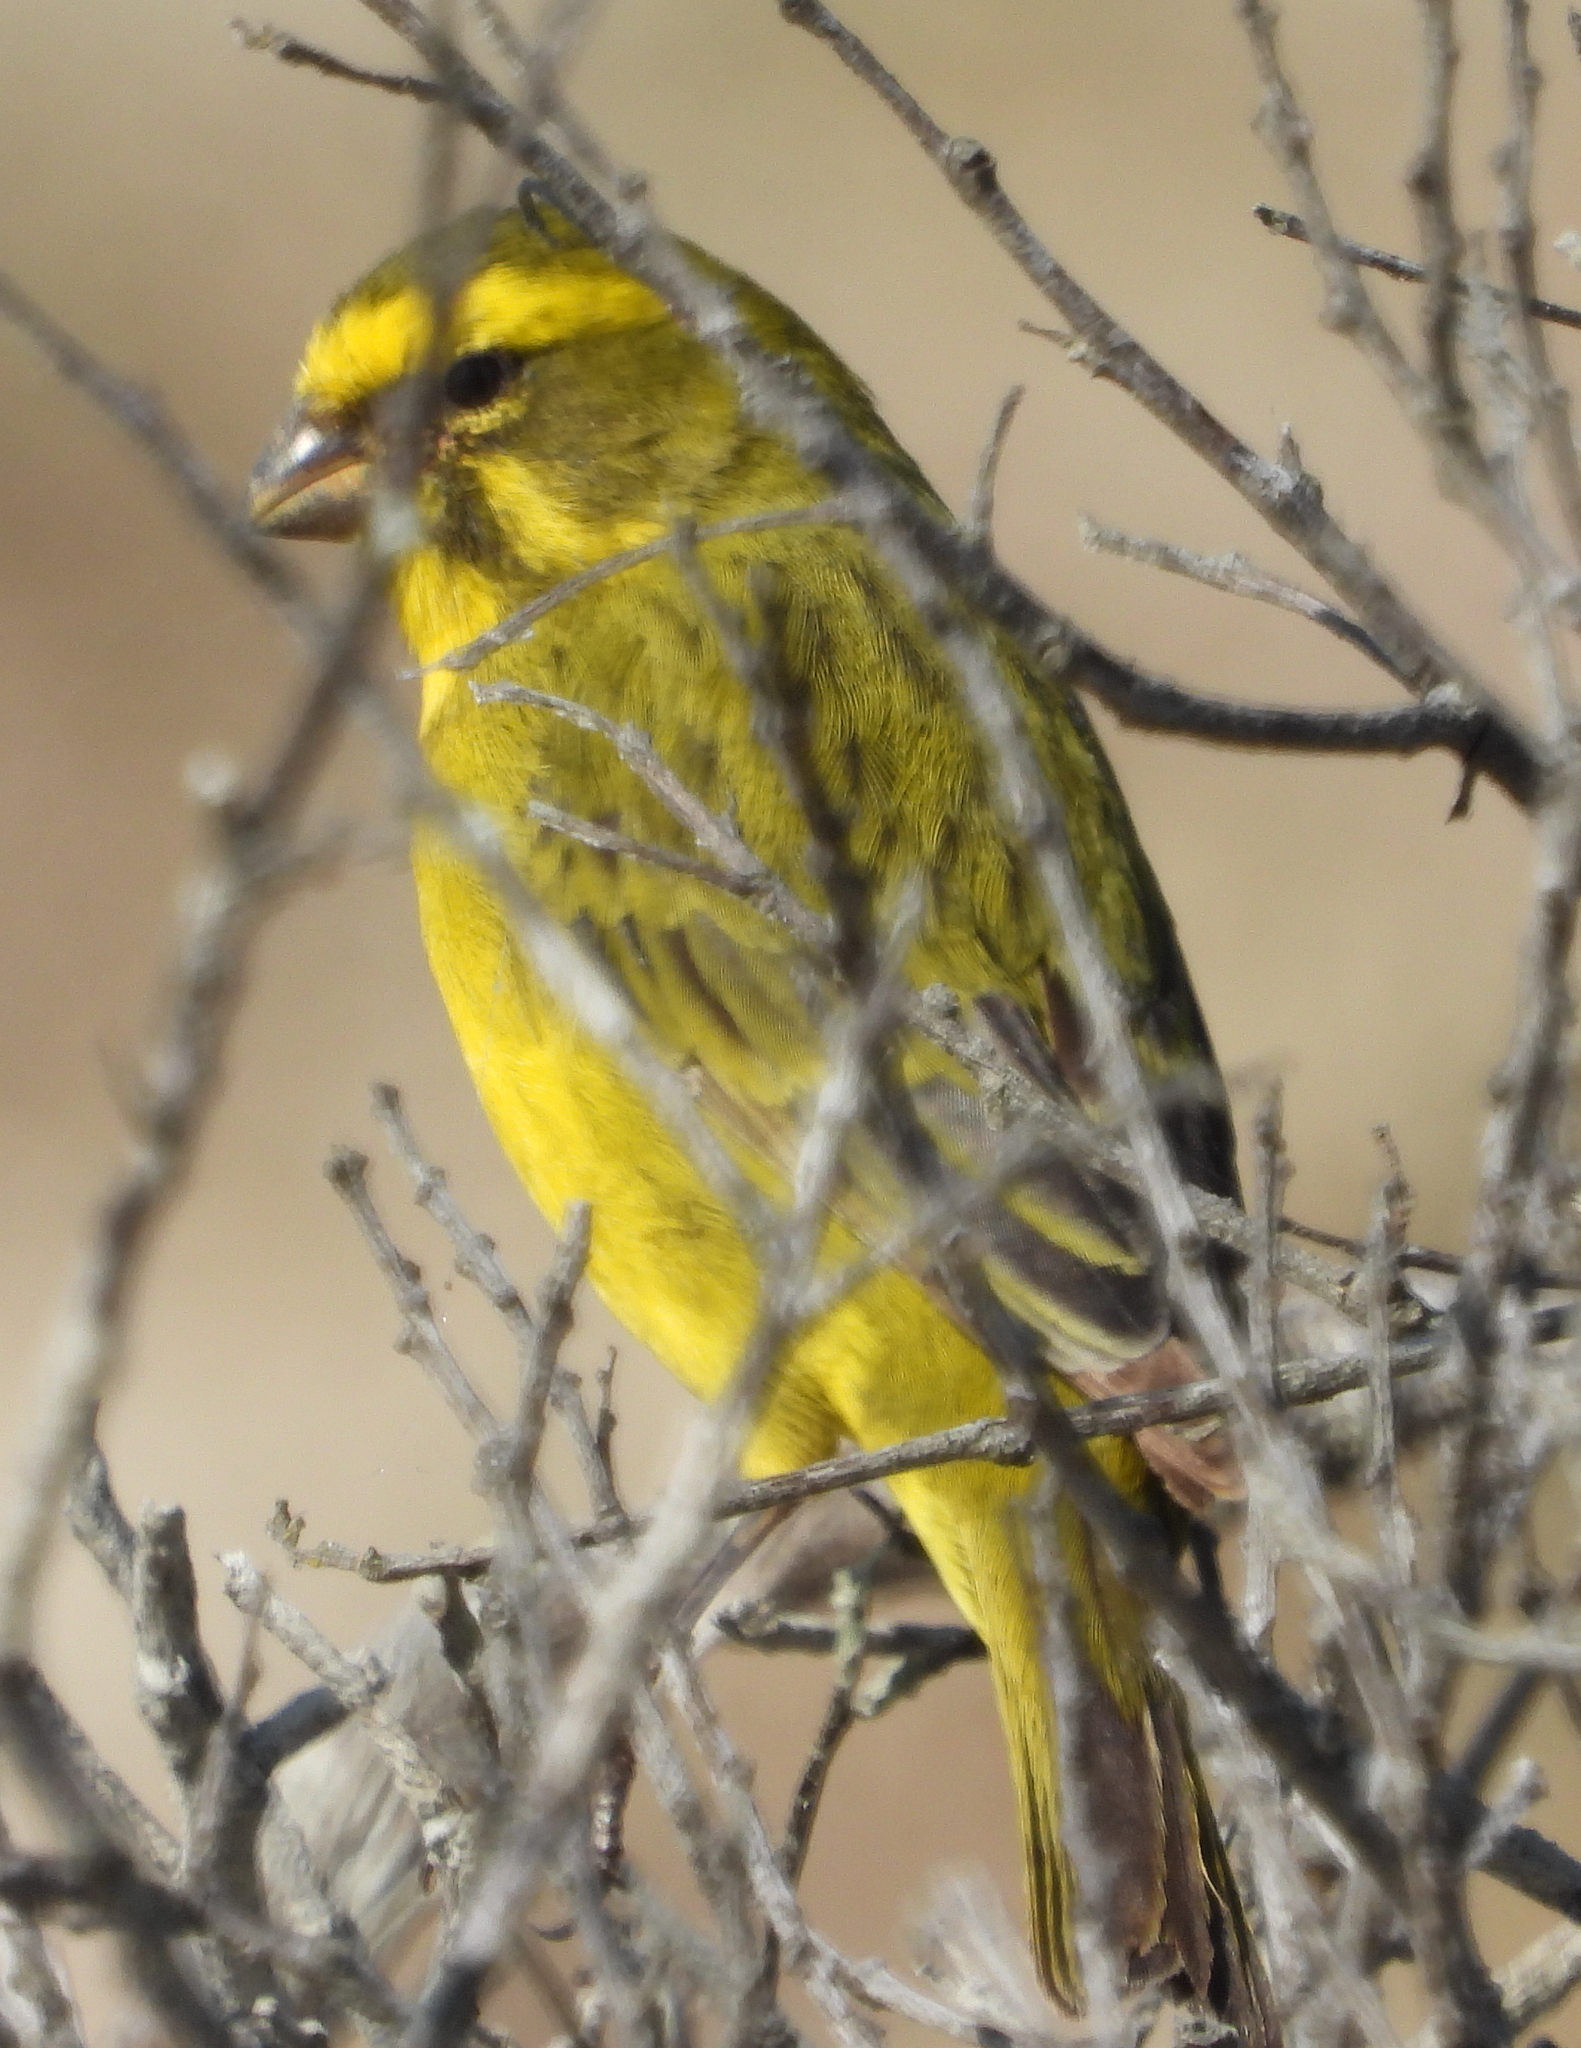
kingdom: Animalia
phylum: Chordata
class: Aves
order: Passeriformes
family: Fringillidae
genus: Crithagra
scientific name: Crithagra flaviventris
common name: Yellow canary
